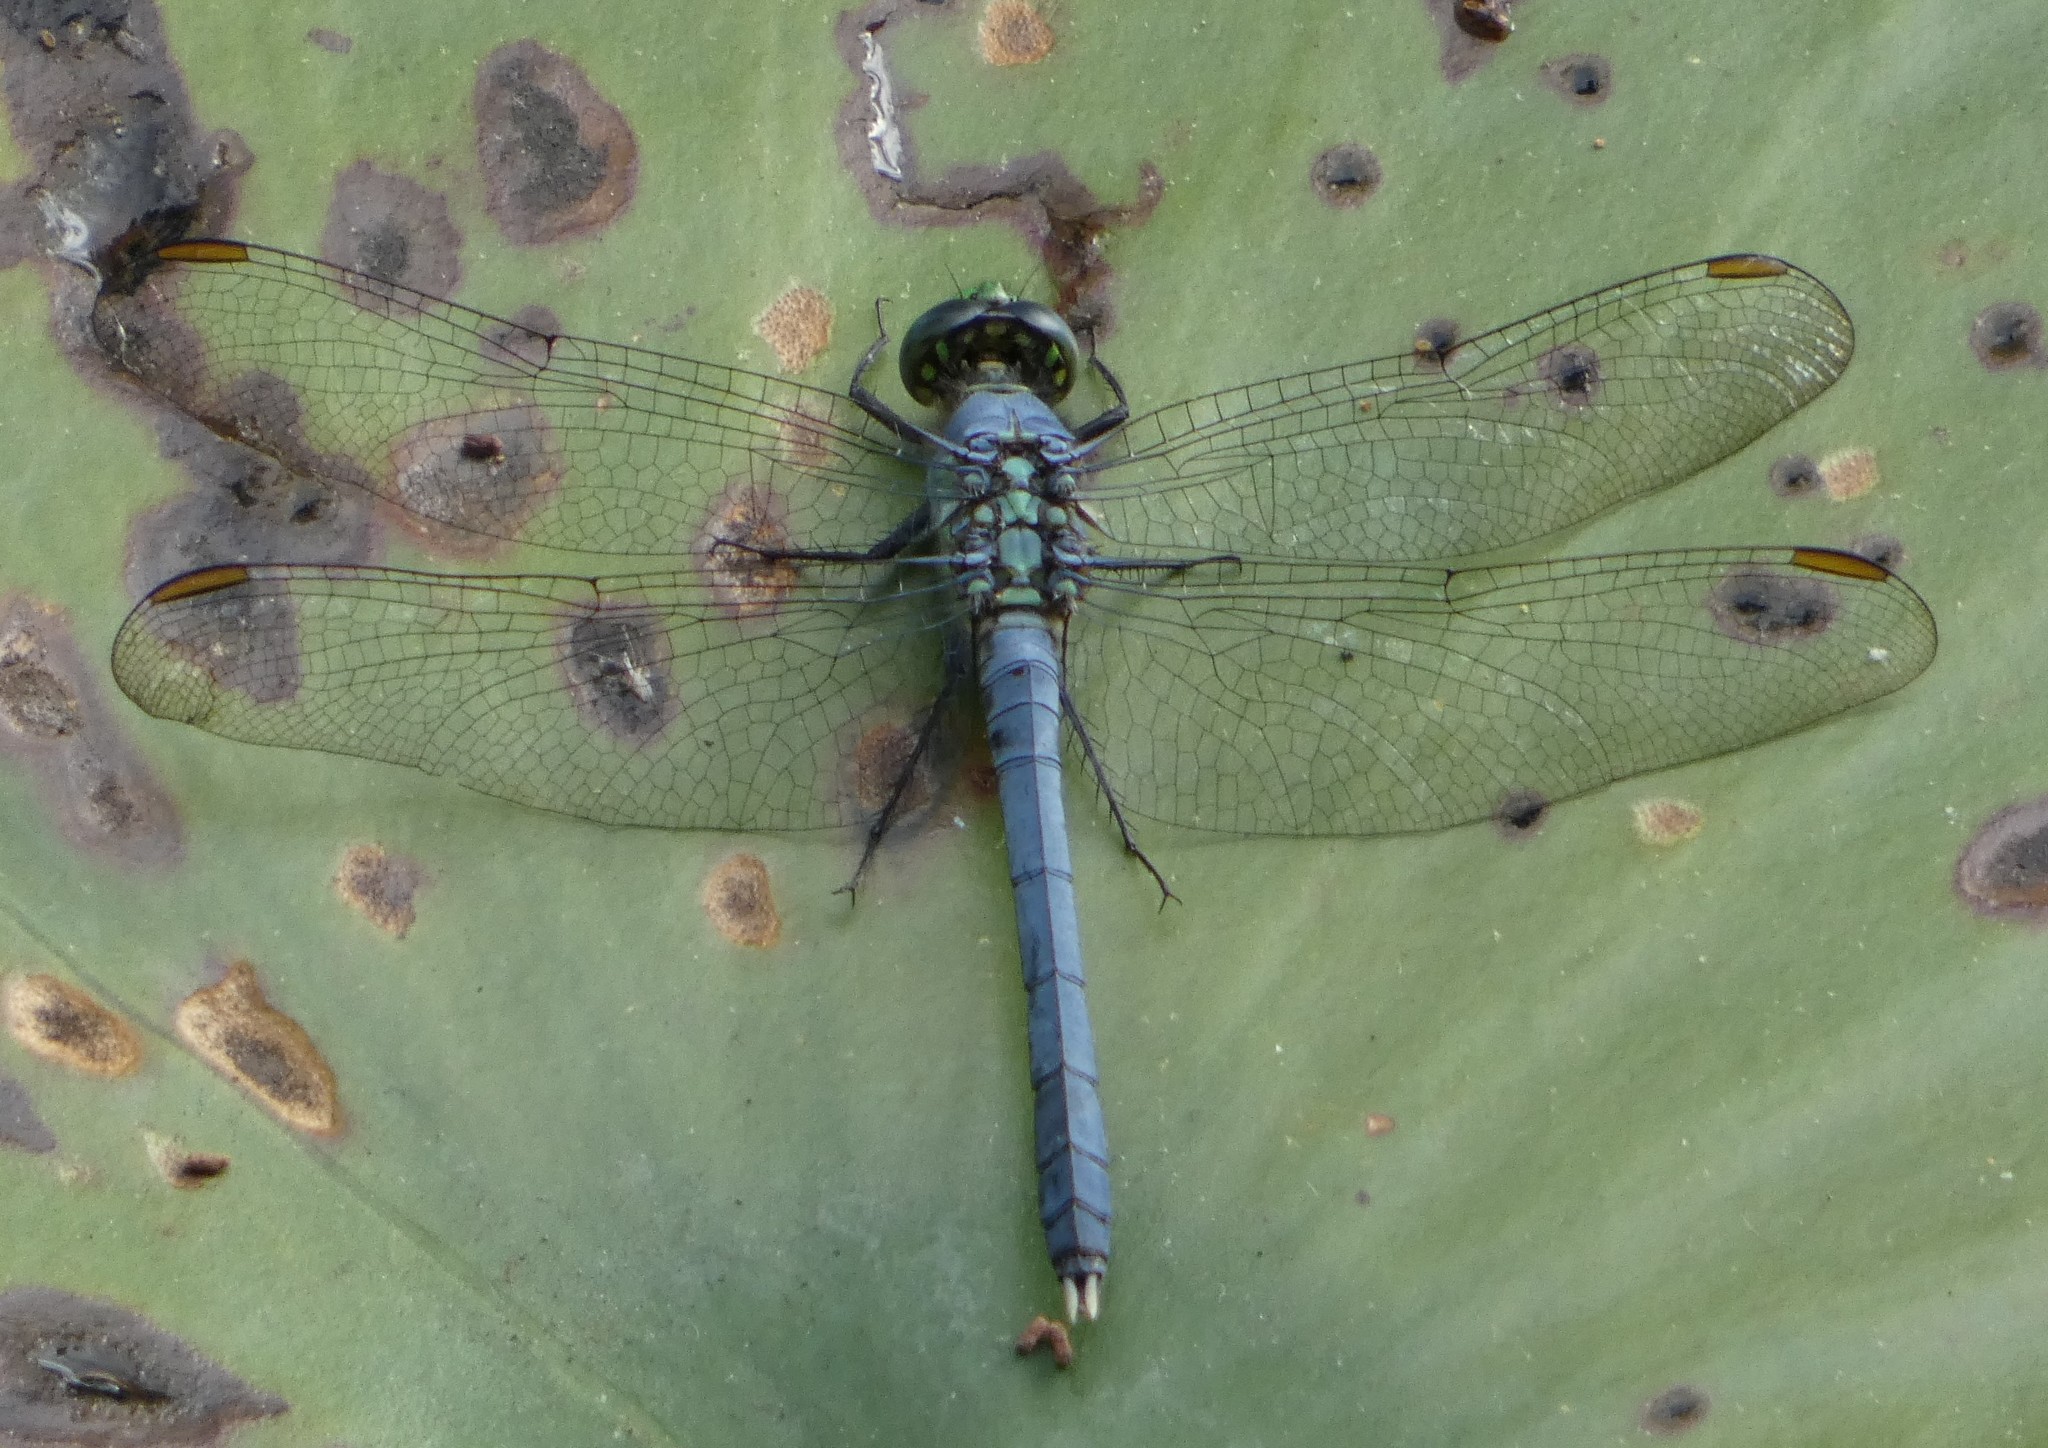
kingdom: Animalia
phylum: Arthropoda
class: Insecta
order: Odonata
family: Libellulidae
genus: Erythemis
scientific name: Erythemis simplicicollis
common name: Eastern pondhawk
